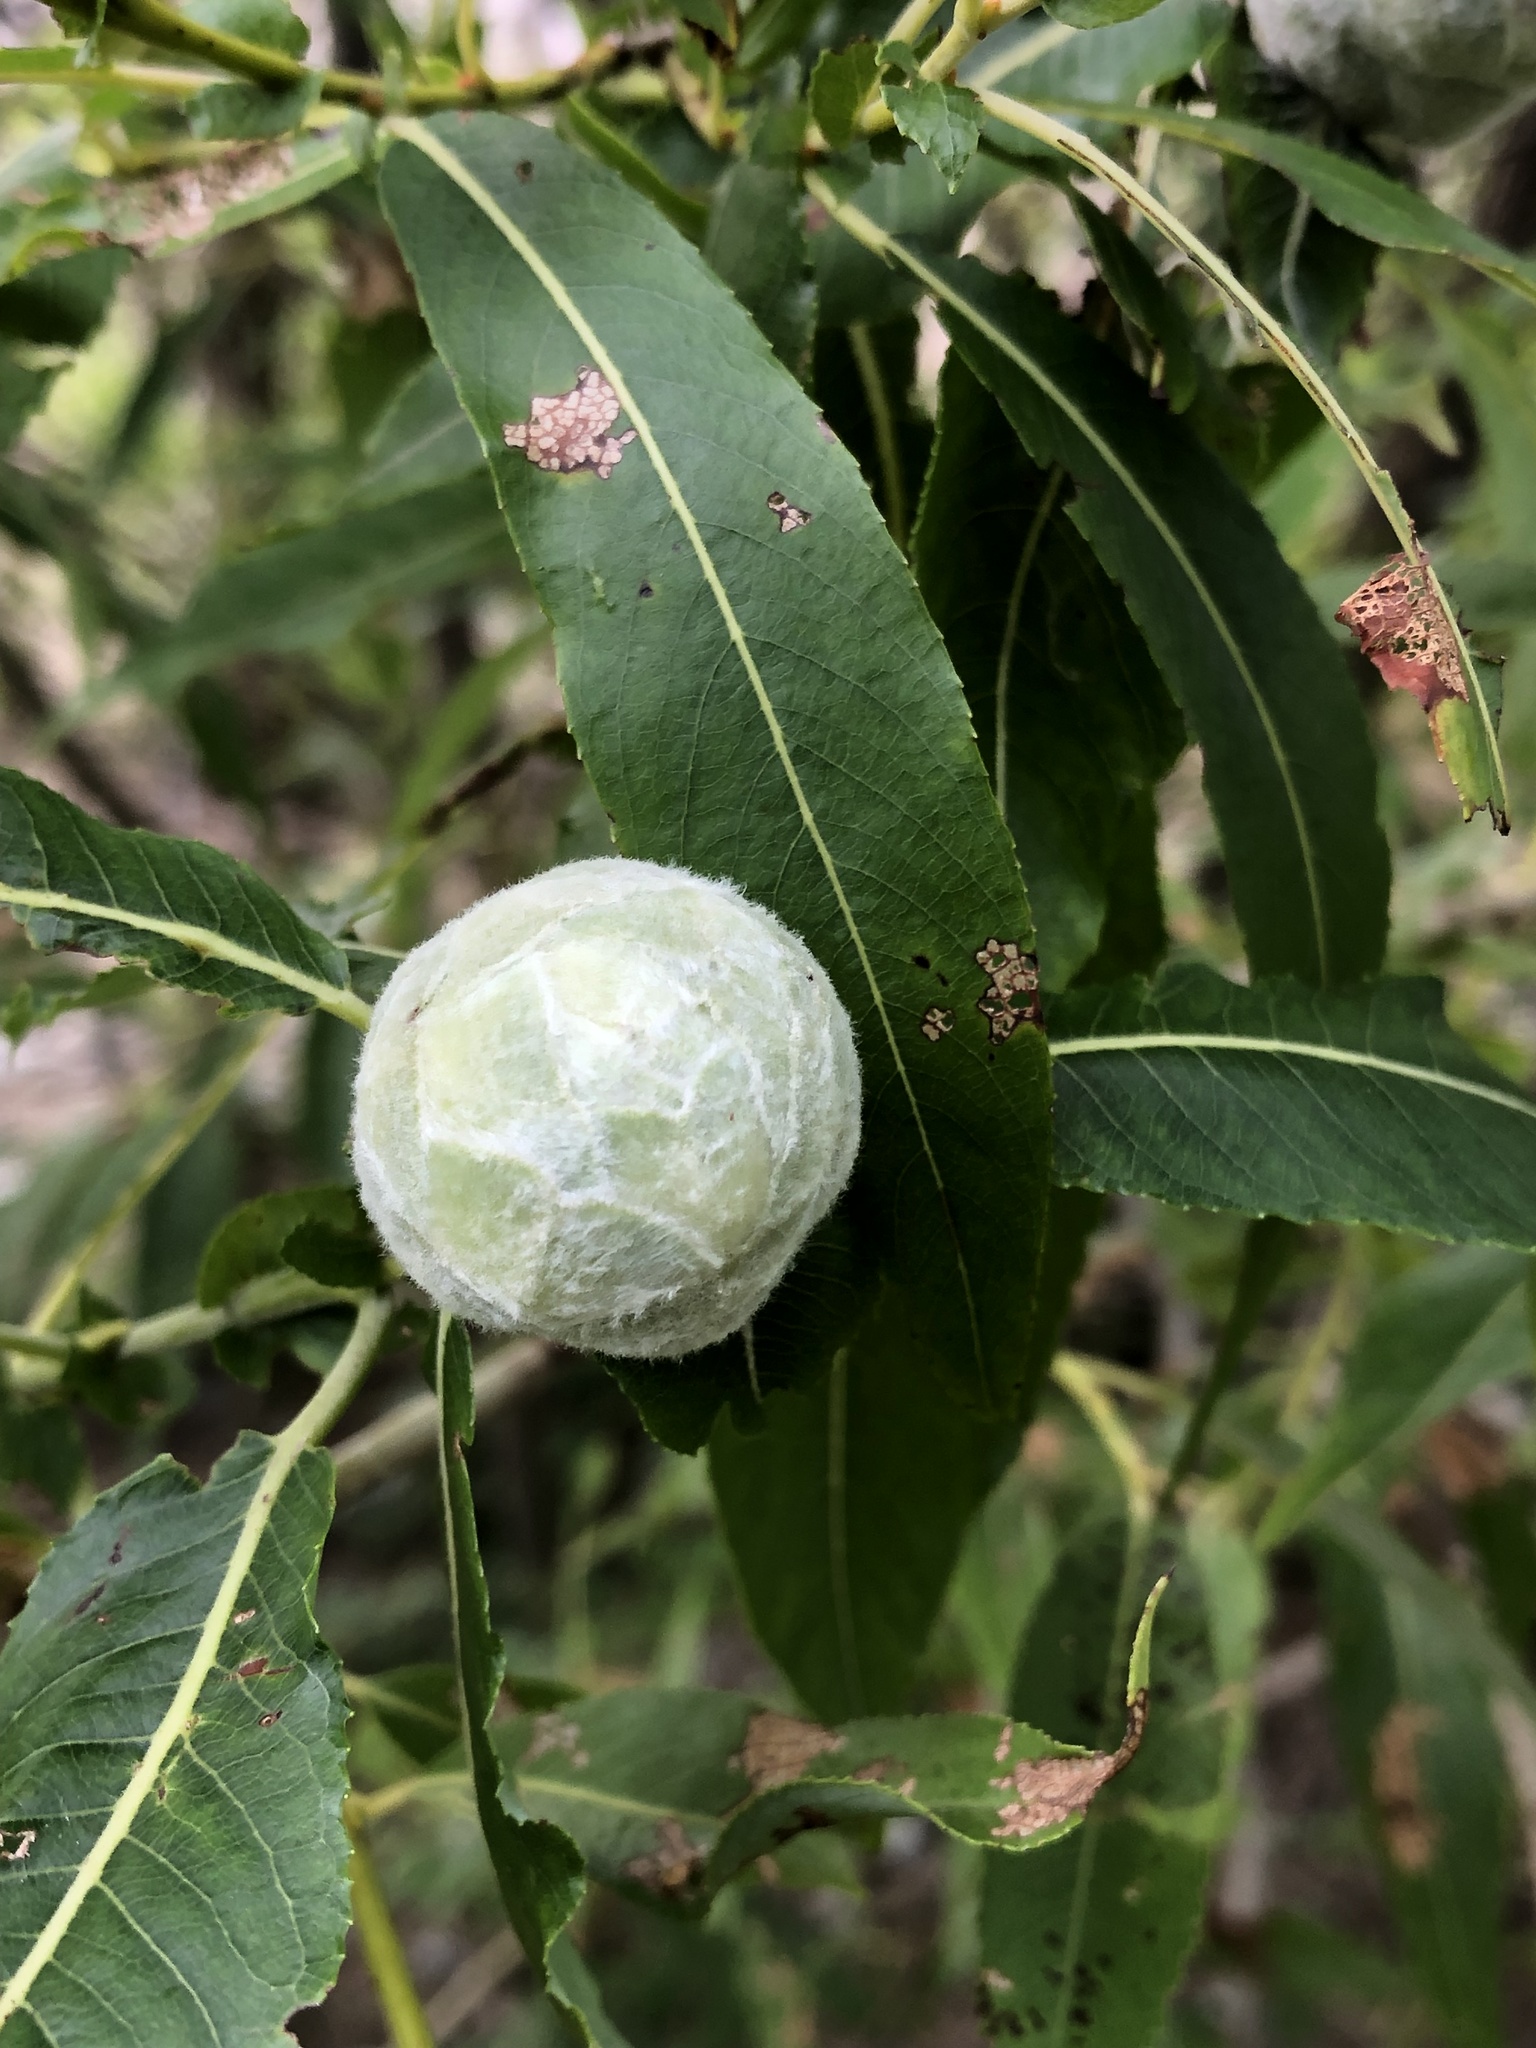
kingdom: Animalia
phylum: Arthropoda
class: Insecta
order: Diptera
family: Cecidomyiidae
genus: Rabdophaga
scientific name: Rabdophaga strobiloides
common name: Willow pinecone gall midge
